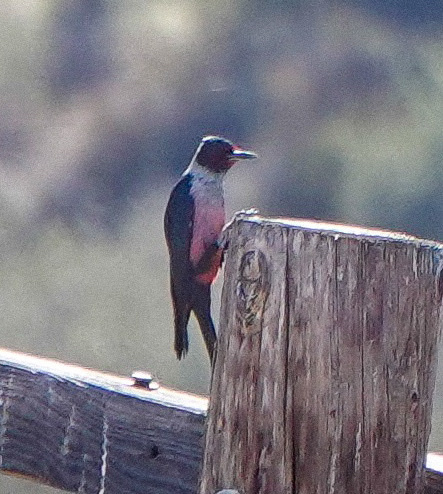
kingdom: Animalia
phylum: Chordata
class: Aves
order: Piciformes
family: Picidae
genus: Melanerpes
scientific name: Melanerpes lewis
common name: Lewis's woodpecker
